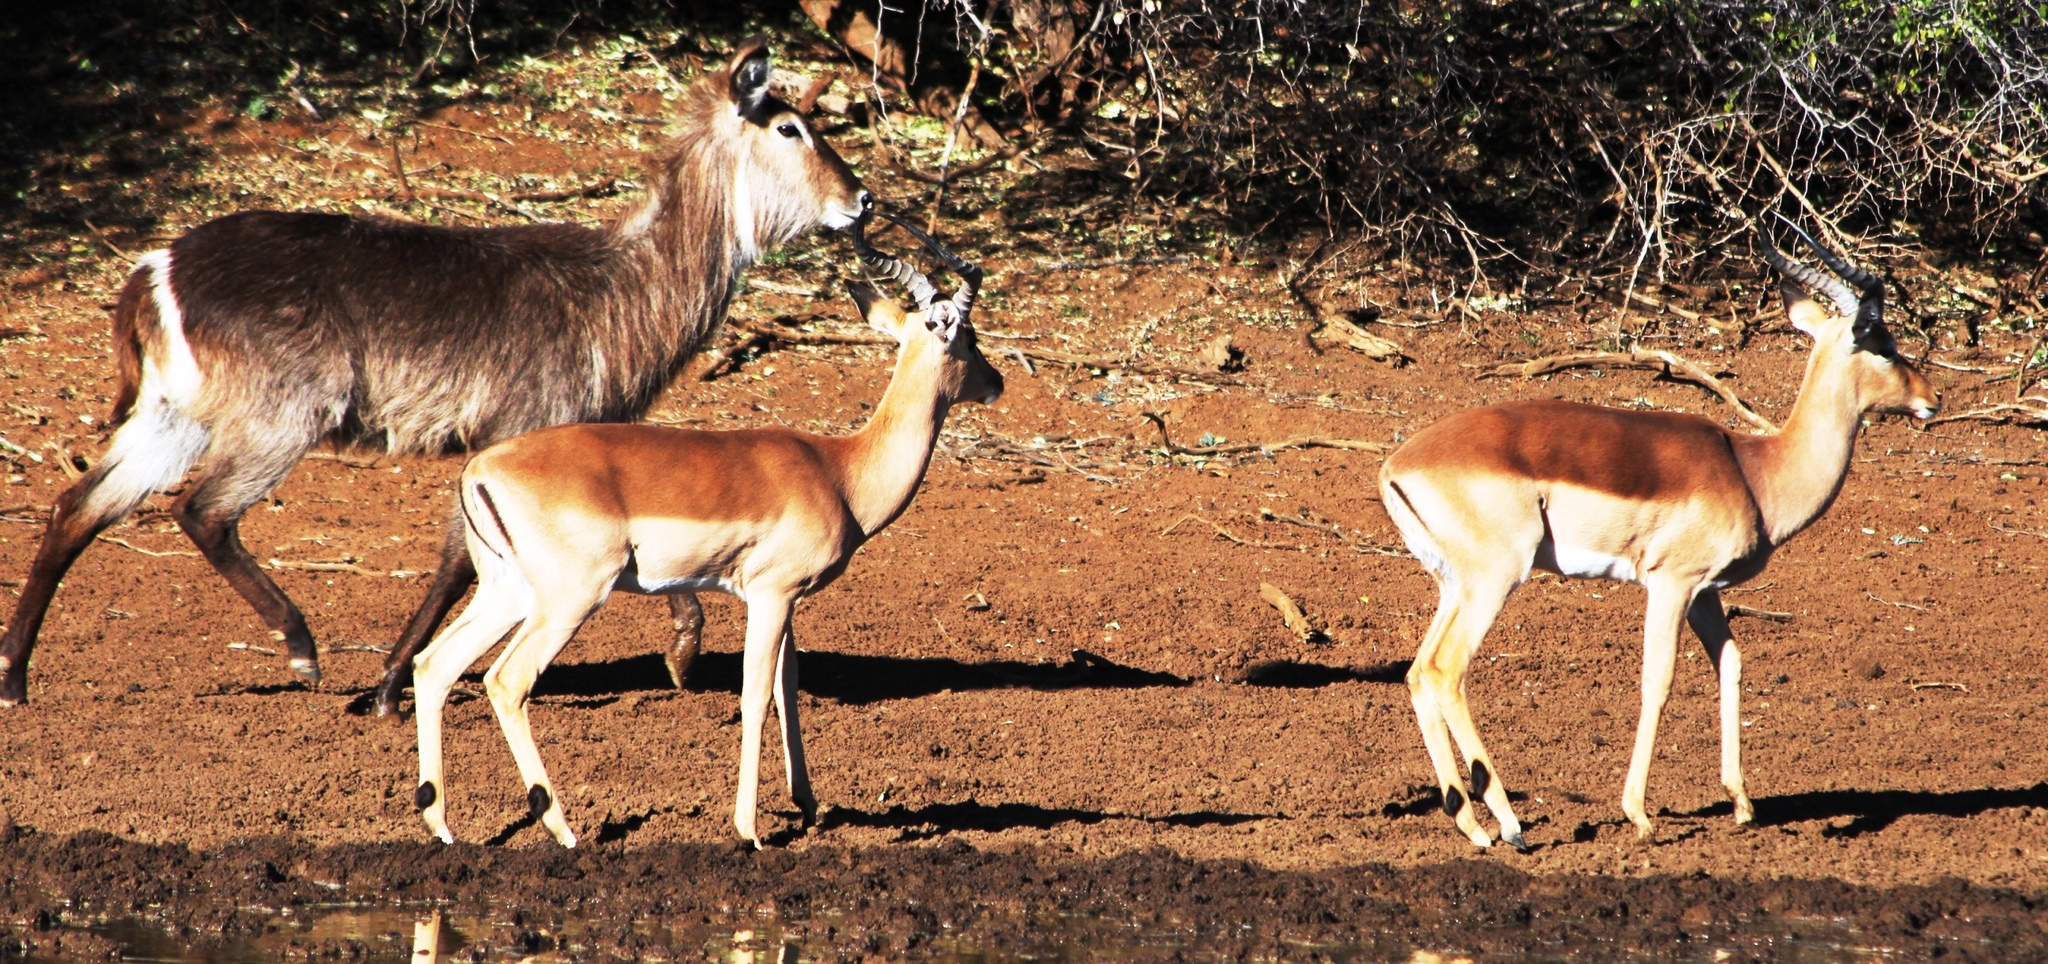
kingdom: Animalia
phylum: Chordata
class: Mammalia
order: Artiodactyla
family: Bovidae
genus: Aepyceros
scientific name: Aepyceros melampus
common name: Impala
